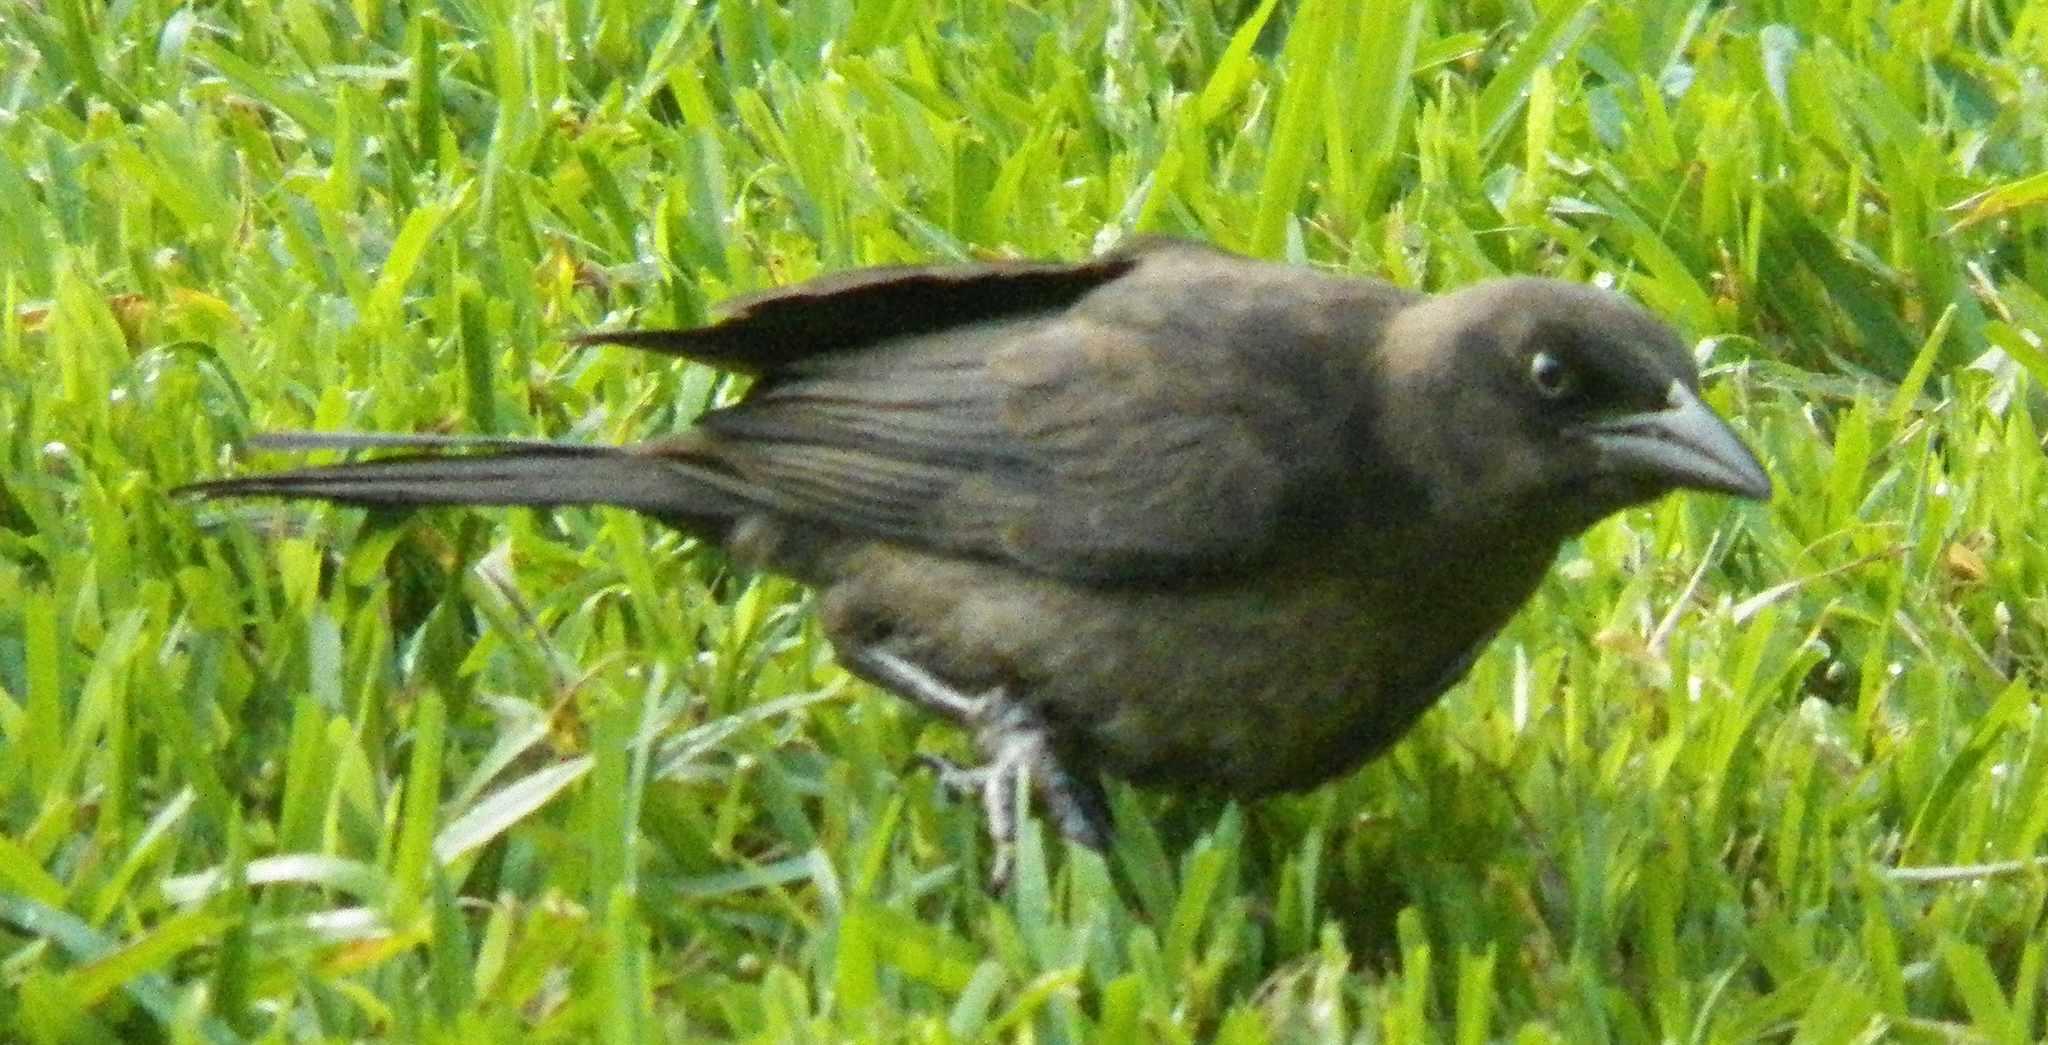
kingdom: Animalia
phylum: Chordata
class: Aves
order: Passeriformes
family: Icteridae
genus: Quiscalus
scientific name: Quiscalus mexicanus
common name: Great-tailed grackle
